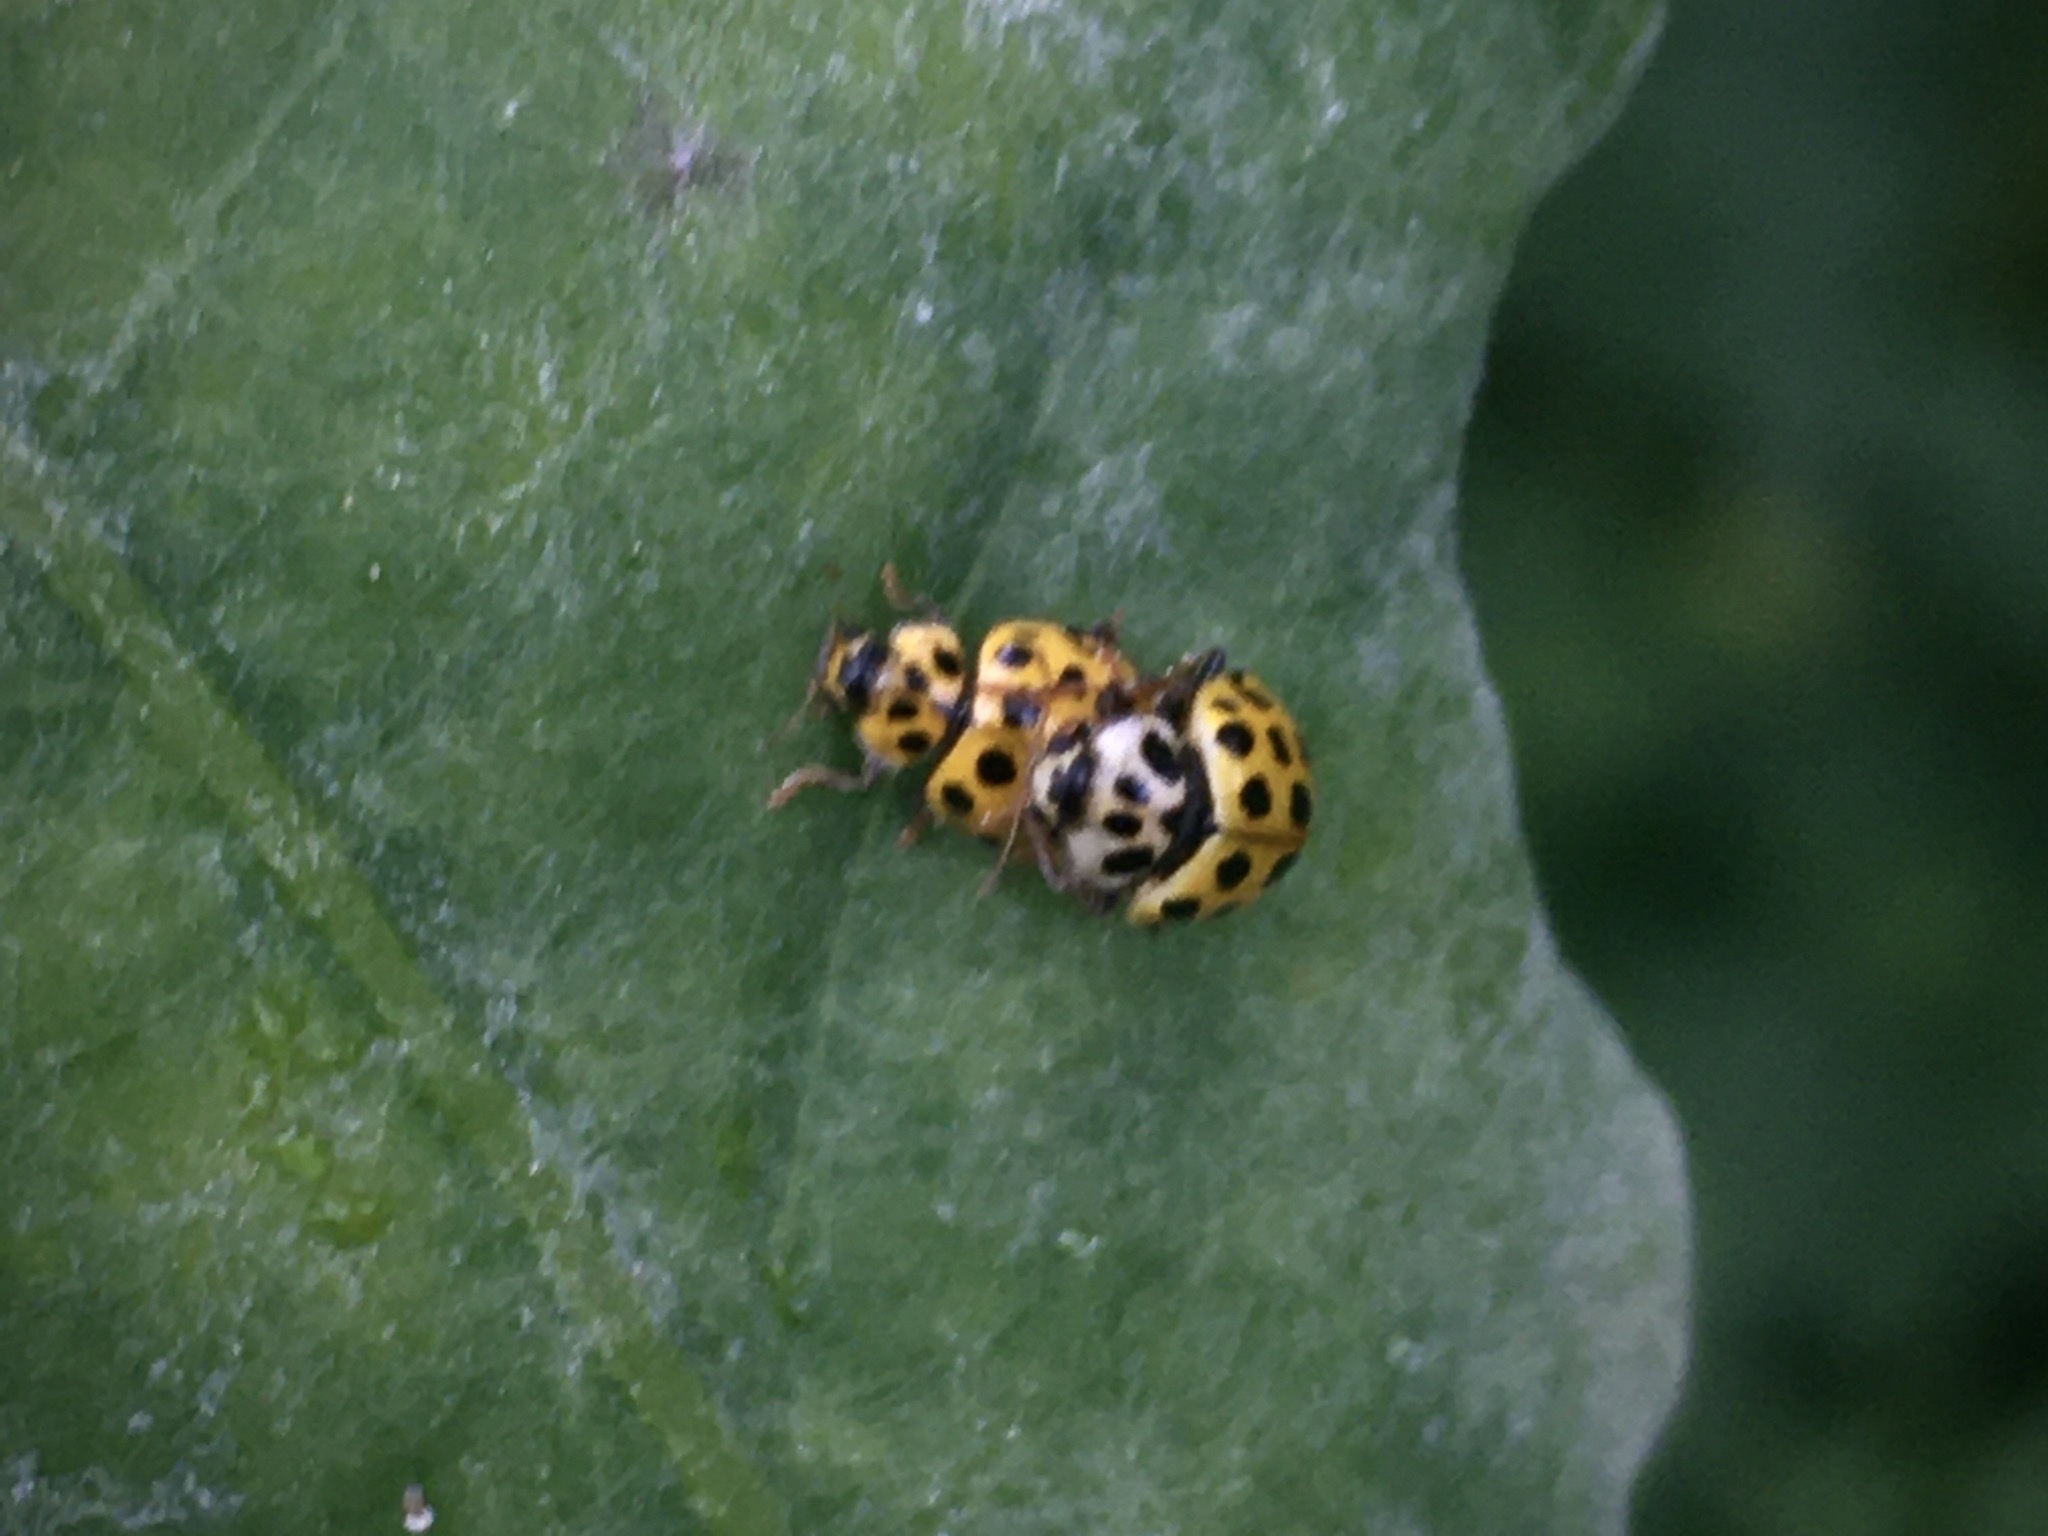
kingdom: Animalia
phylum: Arthropoda
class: Insecta
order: Coleoptera
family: Coccinellidae
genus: Psyllobora
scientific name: Psyllobora vigintiduopunctata
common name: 22-spot ladybird
